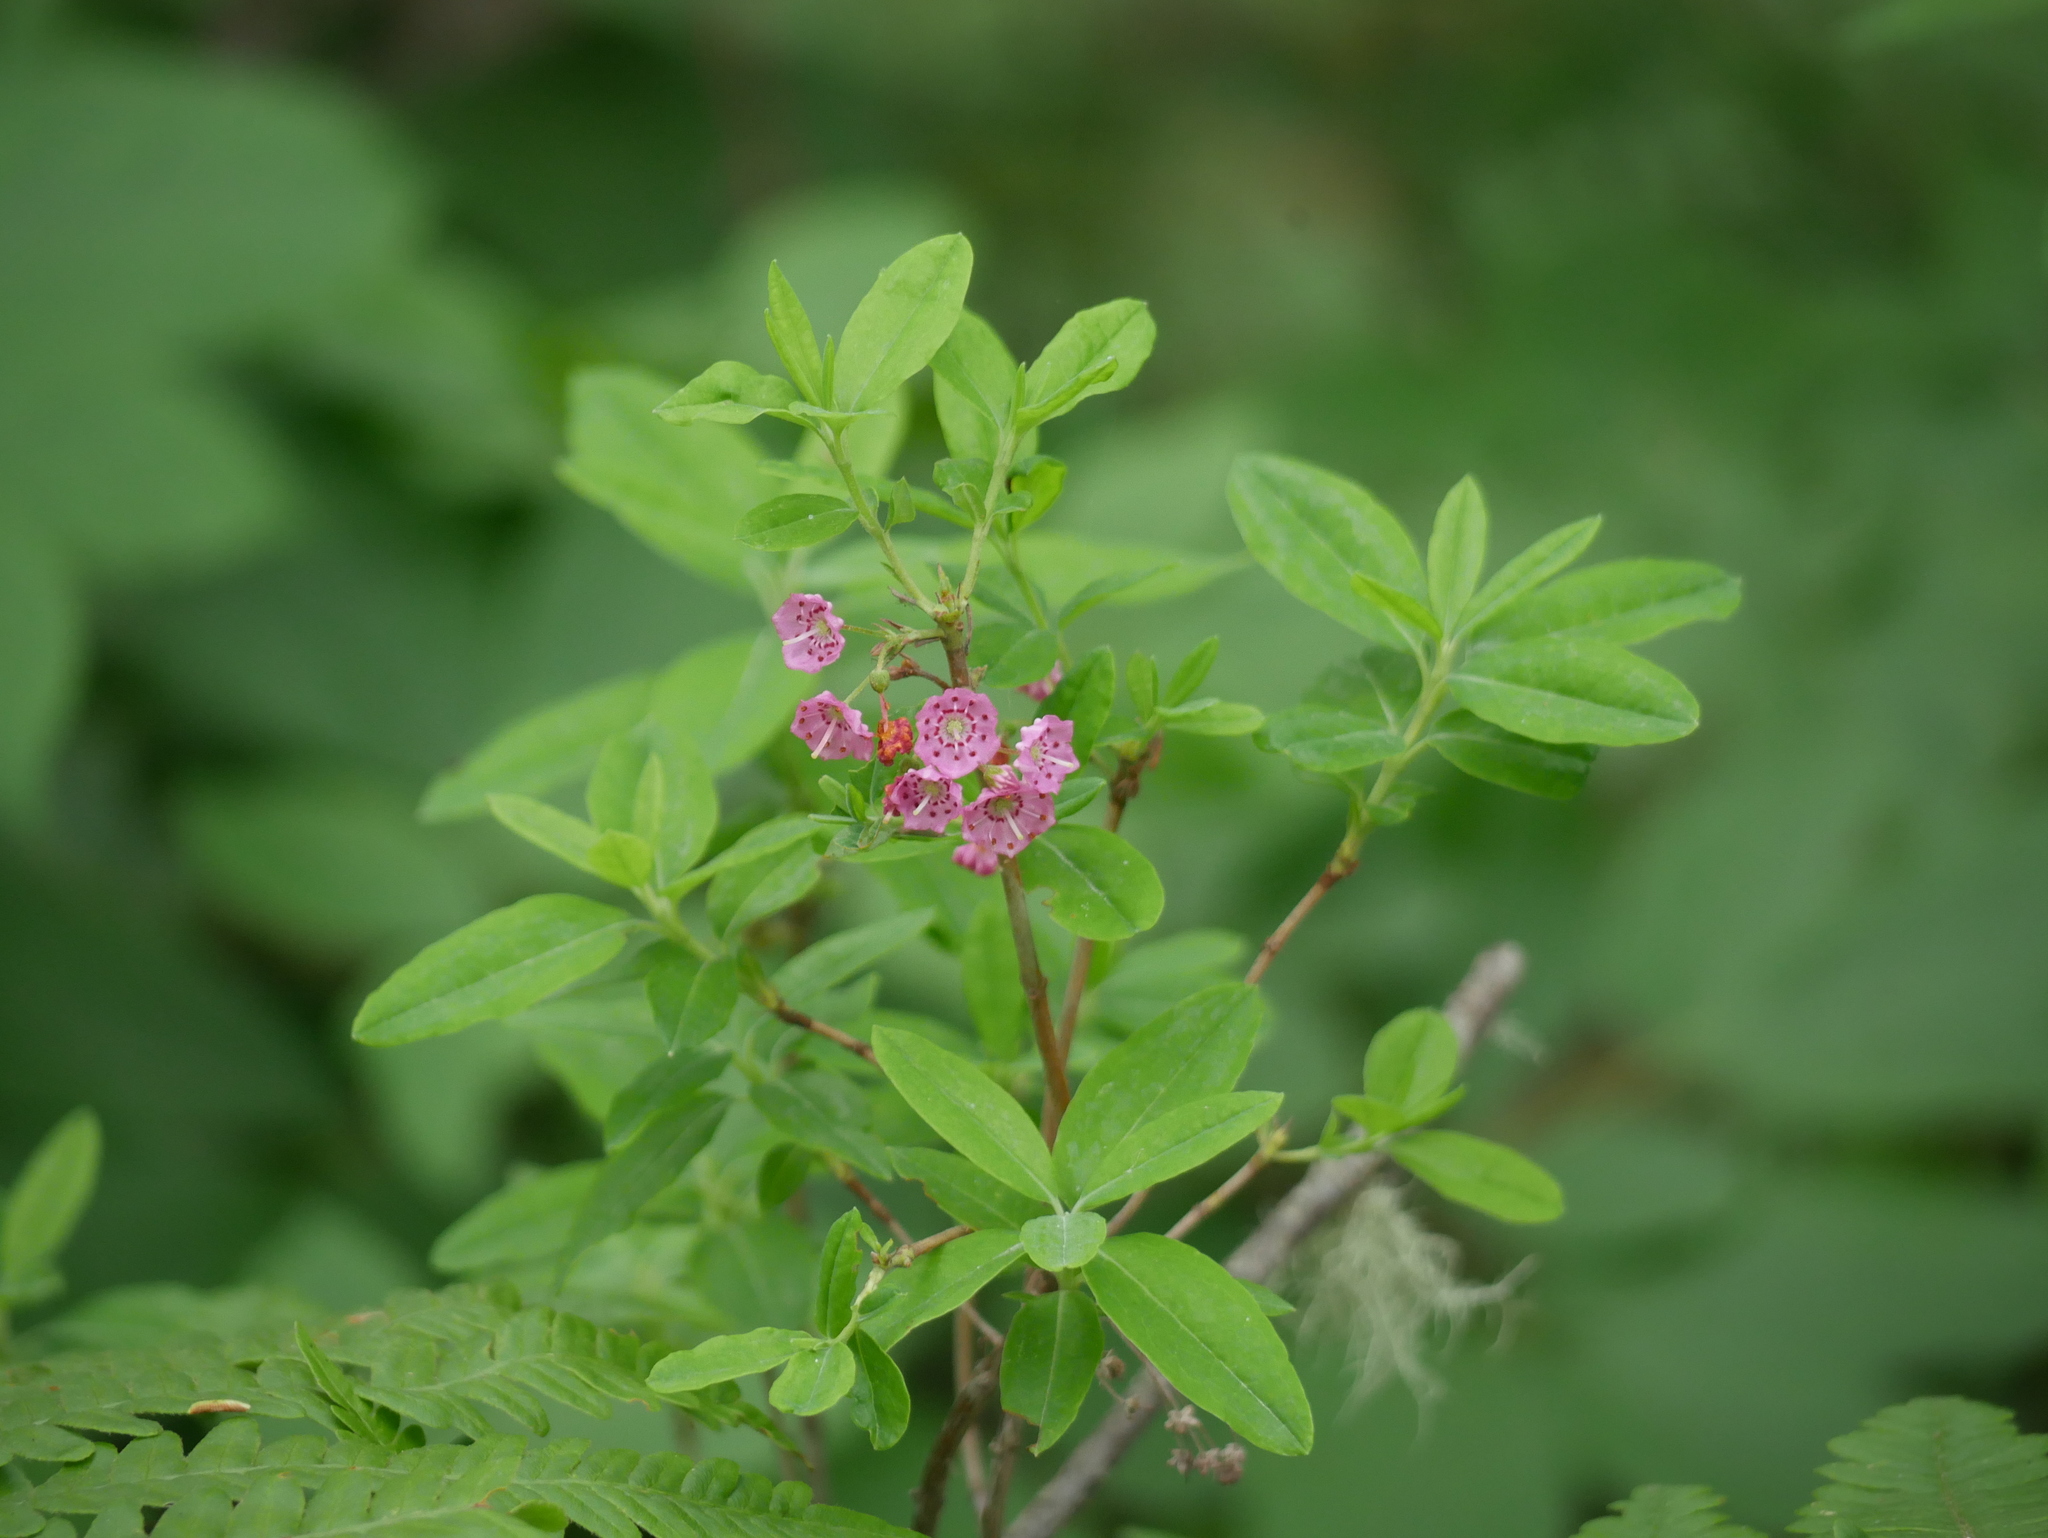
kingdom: Plantae
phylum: Tracheophyta
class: Magnoliopsida
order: Ericales
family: Ericaceae
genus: Kalmia
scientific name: Kalmia angustifolia
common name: Sheep-laurel
